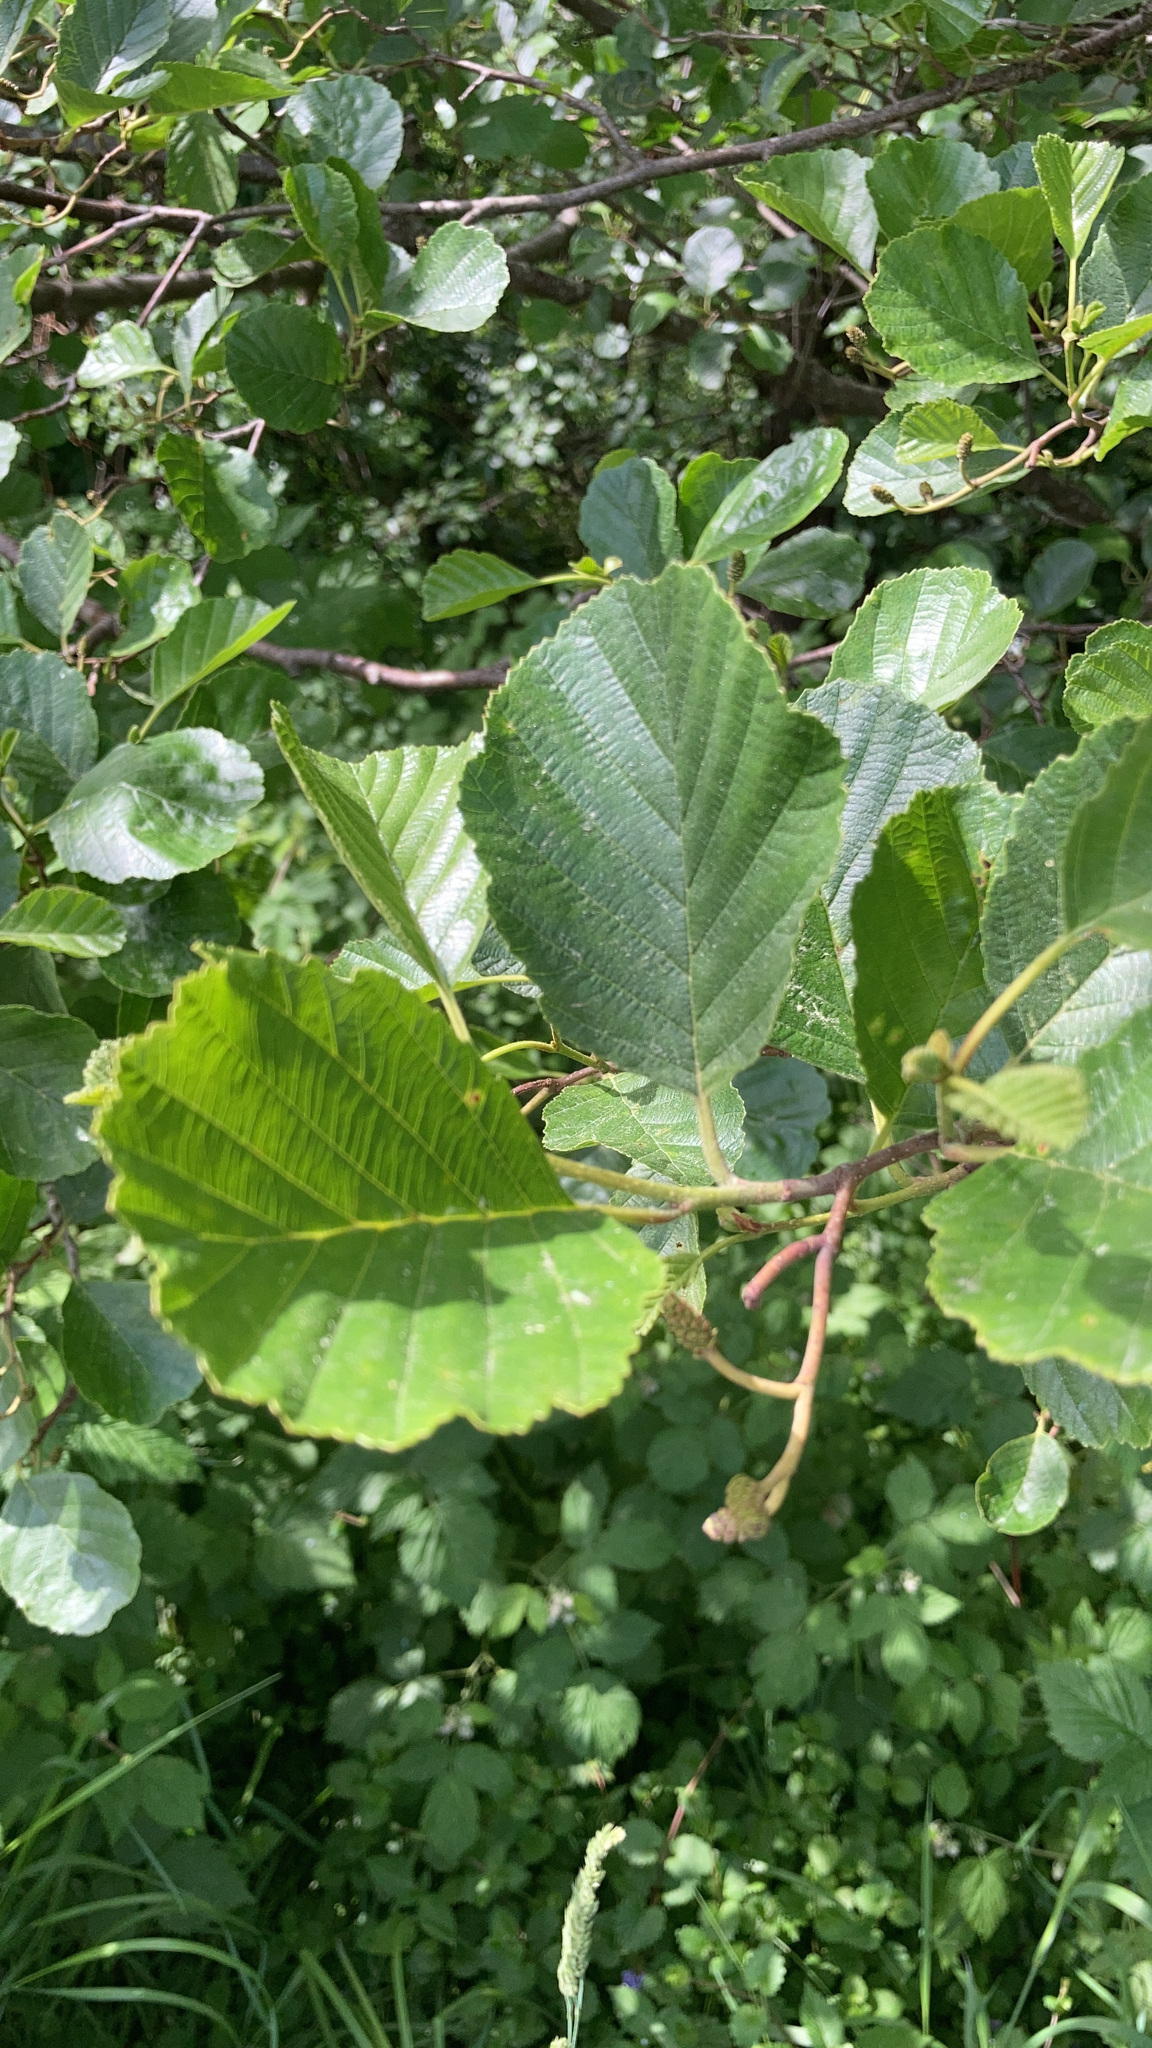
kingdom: Plantae
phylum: Tracheophyta
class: Magnoliopsida
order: Fagales
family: Betulaceae
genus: Alnus
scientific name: Alnus glutinosa
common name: Black alder
